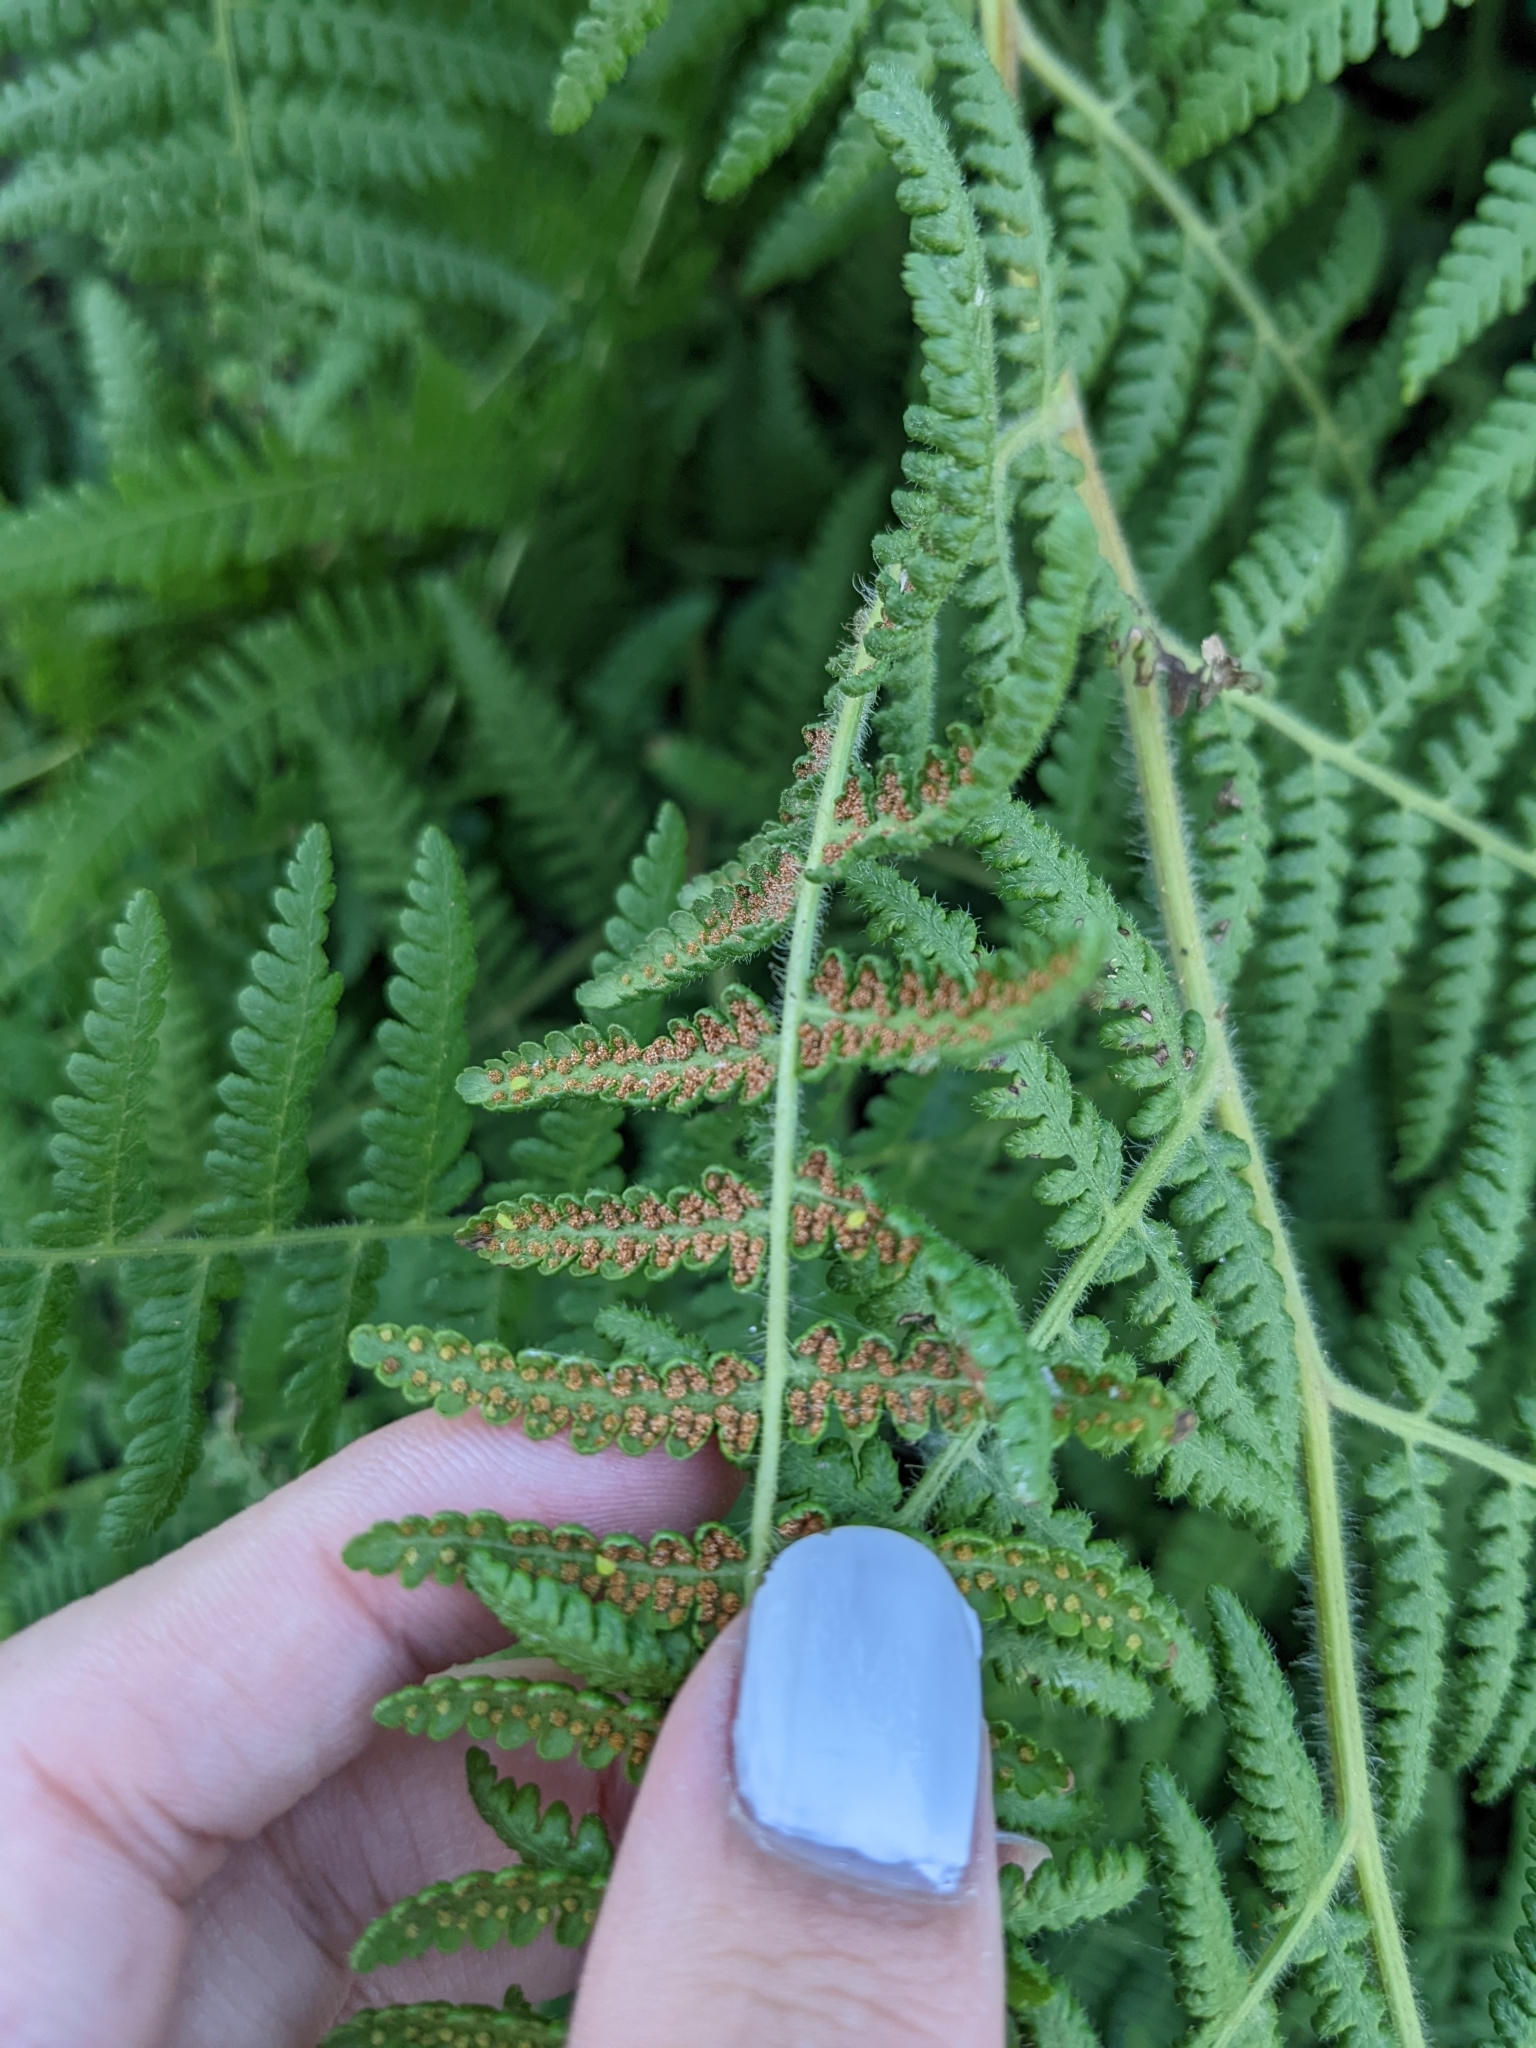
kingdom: Plantae
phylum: Tracheophyta
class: Polypodiopsida
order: Polypodiales
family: Dennstaedtiaceae
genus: Hypolepis
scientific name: Hypolepis punctata
